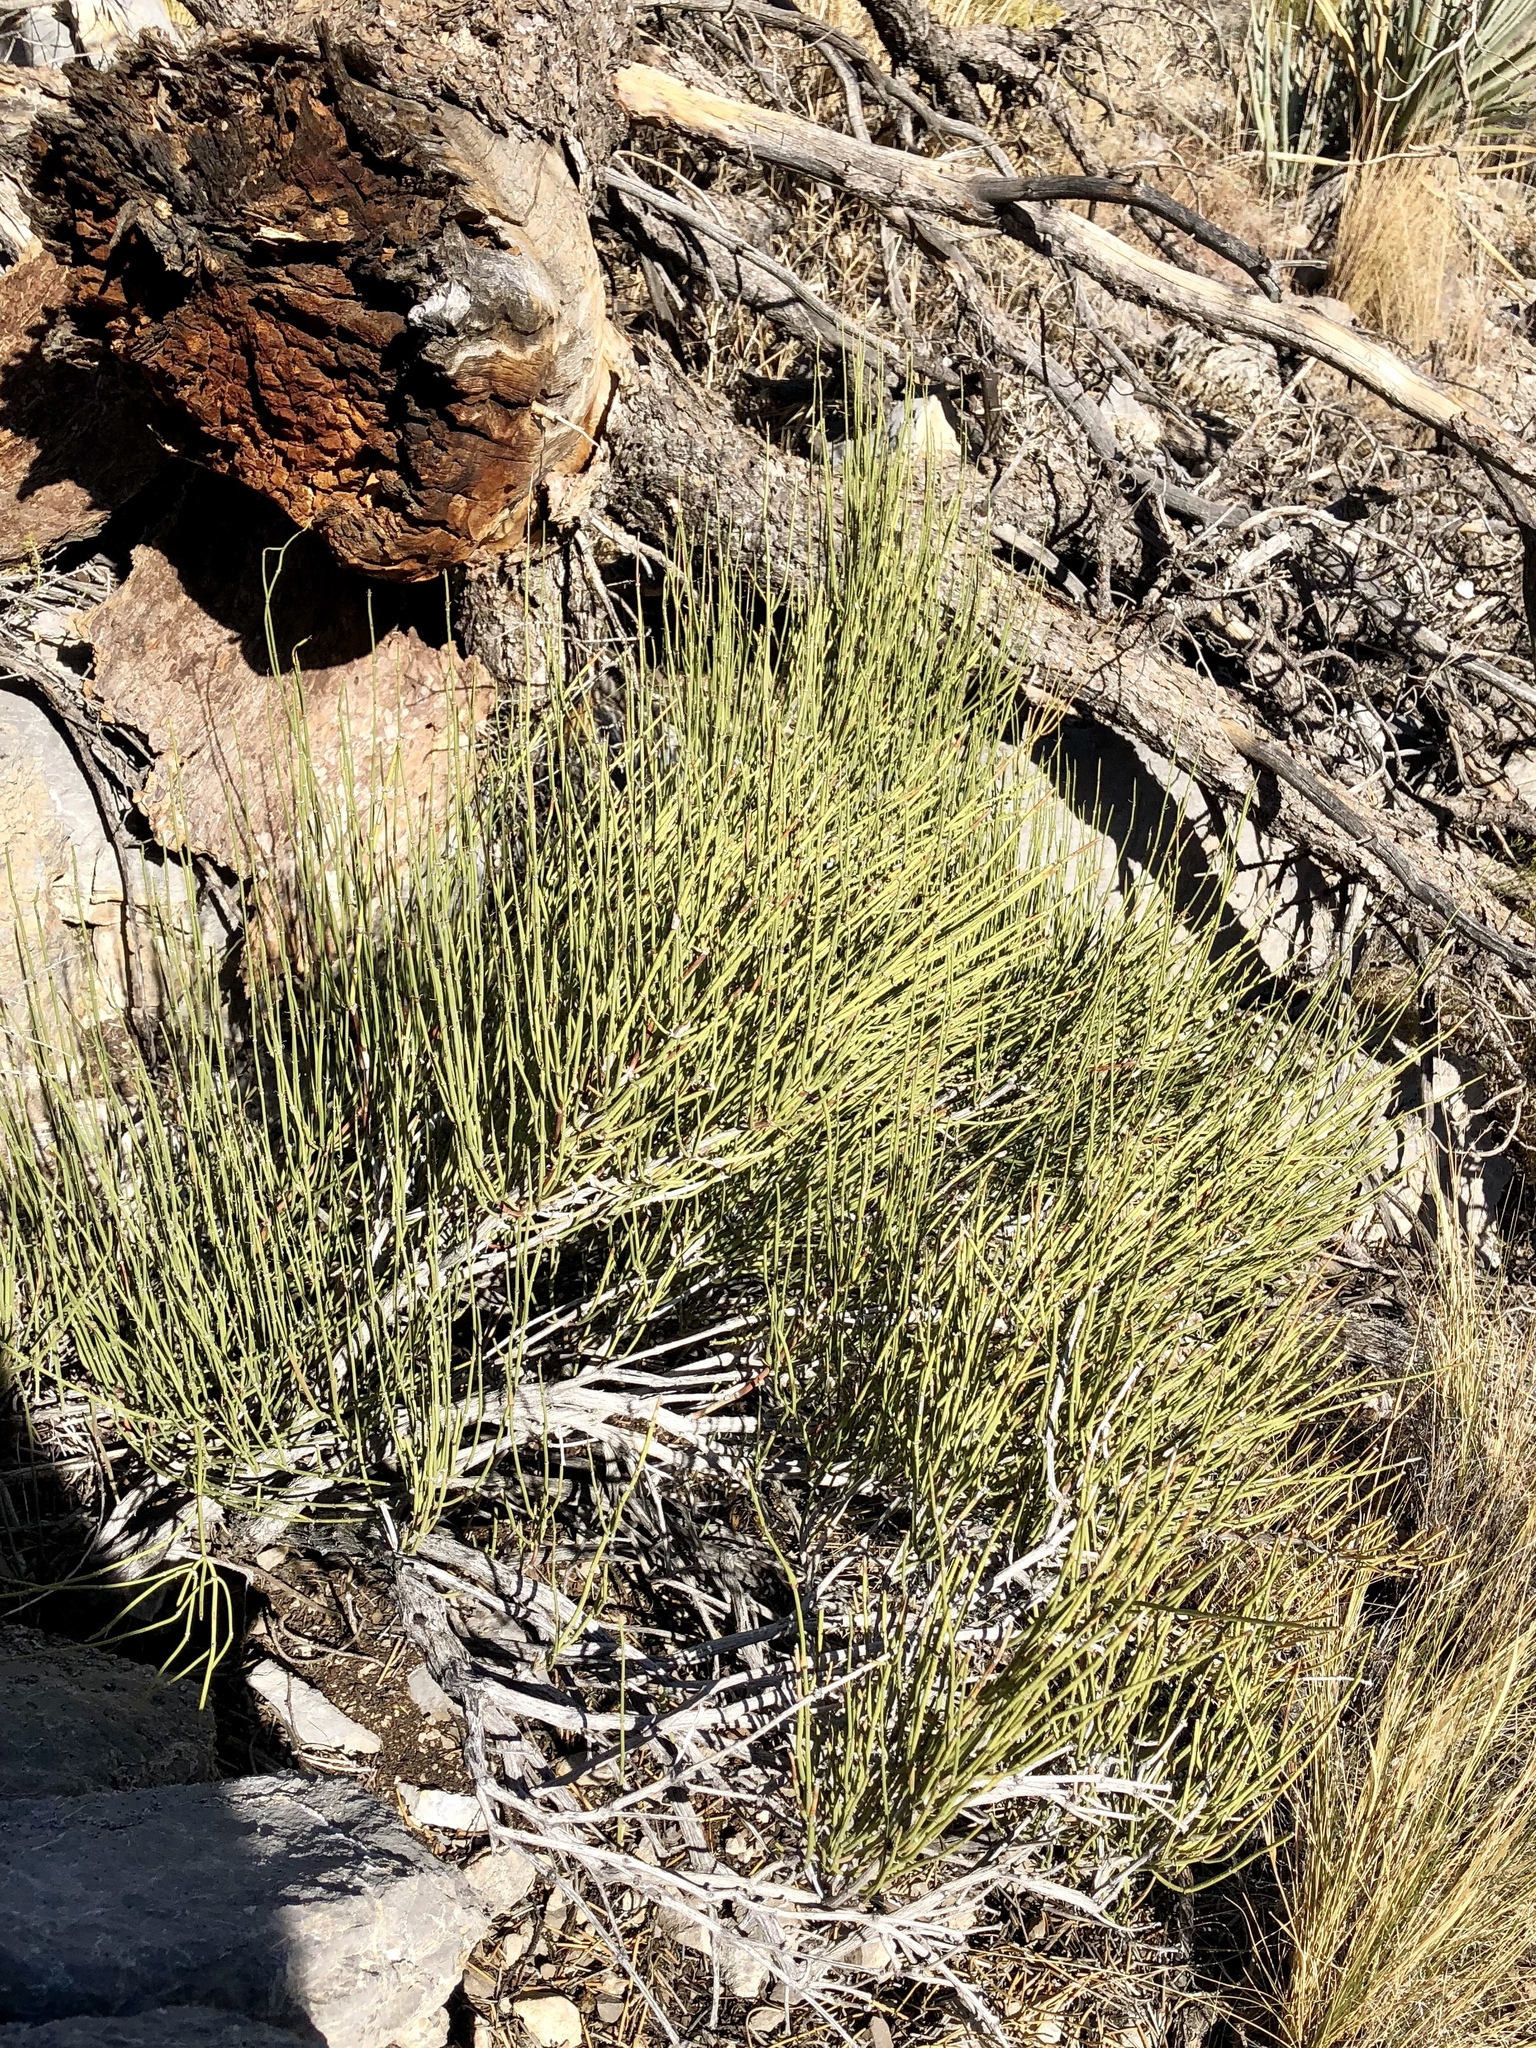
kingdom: Plantae
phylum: Tracheophyta
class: Gnetopsida
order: Ephedrales
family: Ephedraceae
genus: Ephedra
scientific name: Ephedra viridis
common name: Green ephedra
